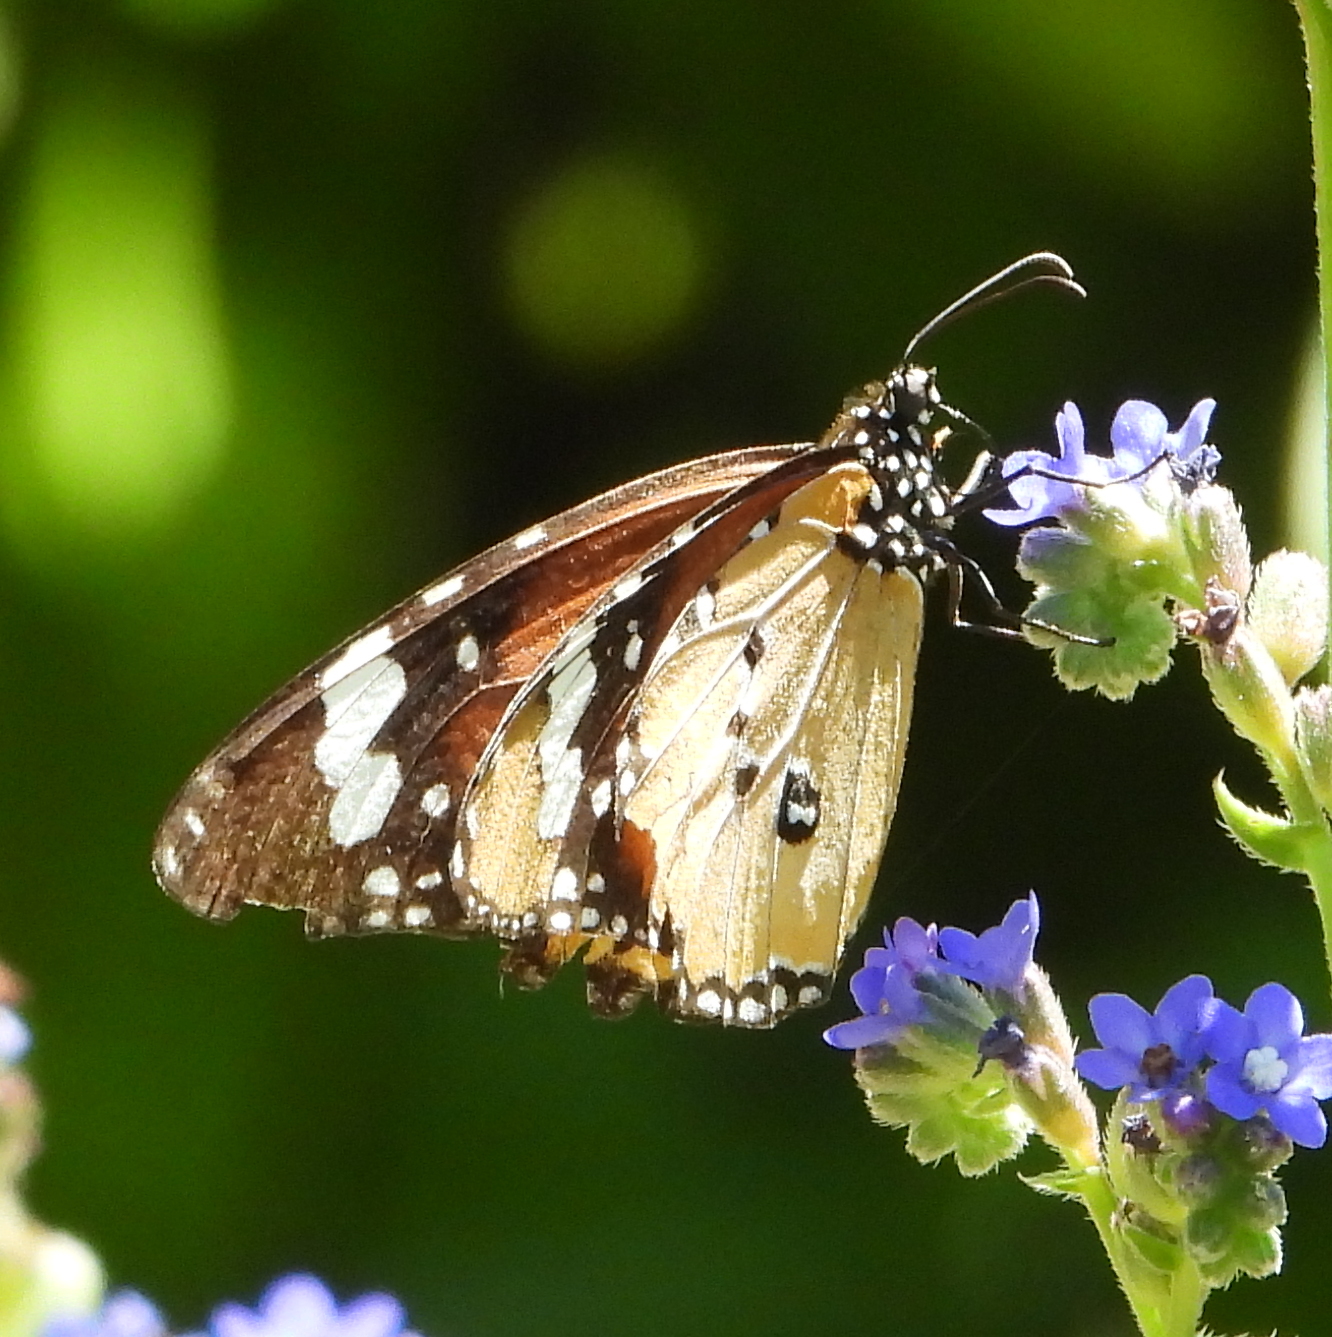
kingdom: Animalia
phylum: Arthropoda
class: Insecta
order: Lepidoptera
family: Nymphalidae
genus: Danaus
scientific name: Danaus chrysippus
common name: Plain tiger
